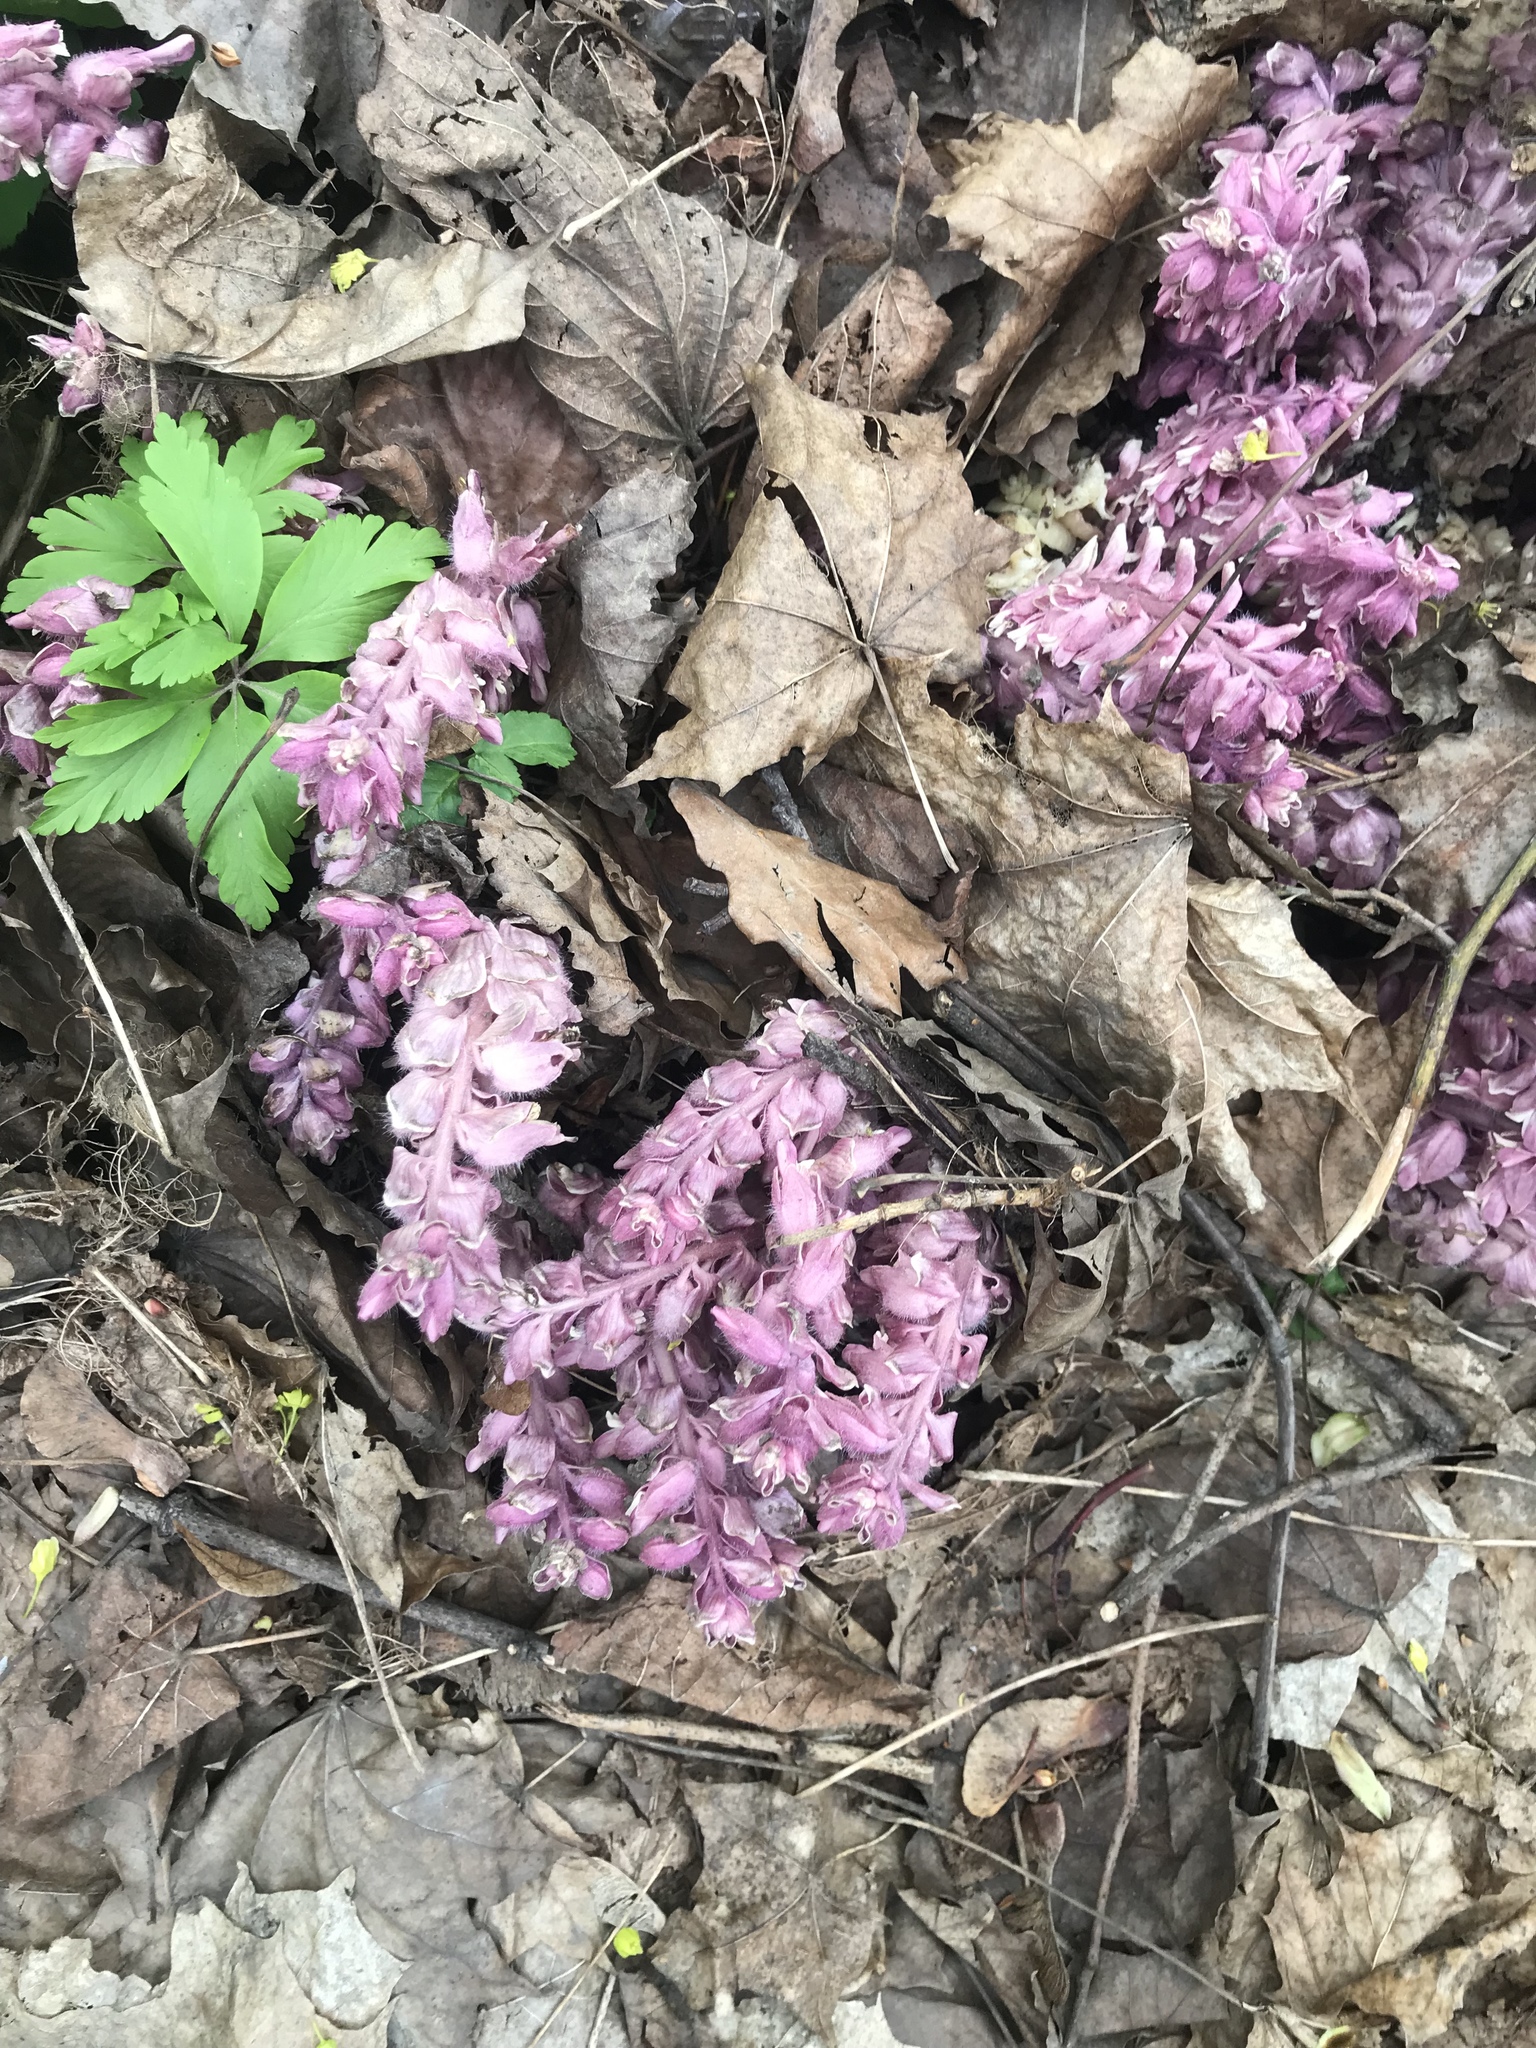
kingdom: Plantae
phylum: Tracheophyta
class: Magnoliopsida
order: Lamiales
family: Orobanchaceae
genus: Lathraea
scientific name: Lathraea squamaria
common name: Toothwort
